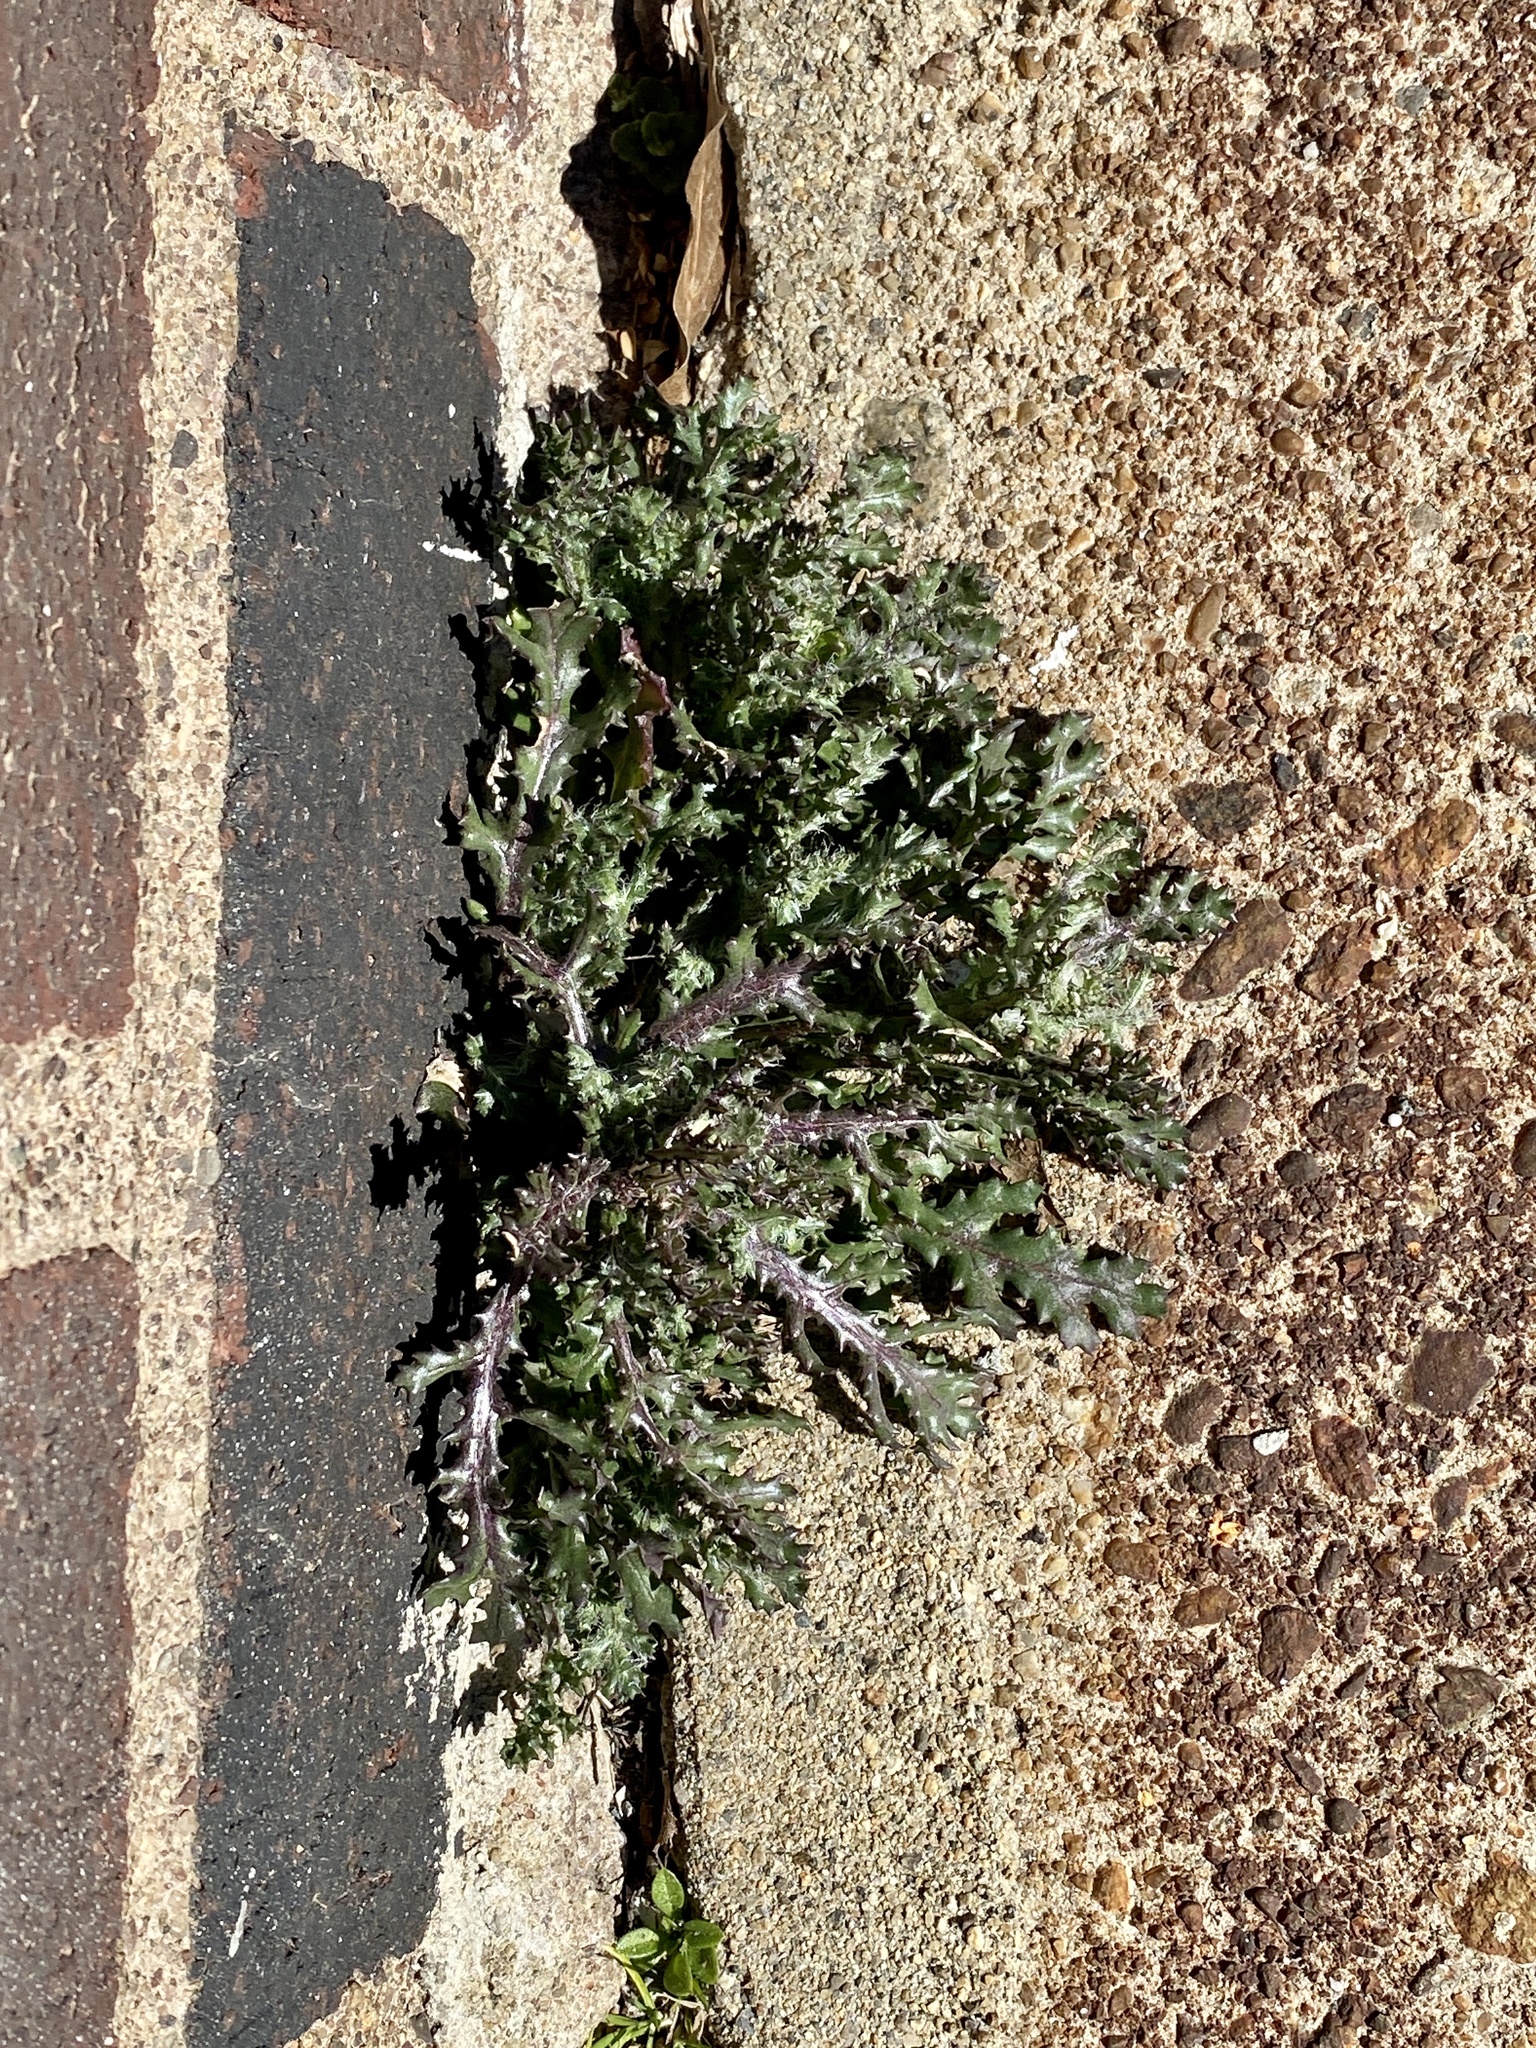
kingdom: Plantae
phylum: Tracheophyta
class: Magnoliopsida
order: Asterales
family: Asteraceae
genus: Senecio
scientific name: Senecio vulgaris
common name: Old-man-in-the-spring
